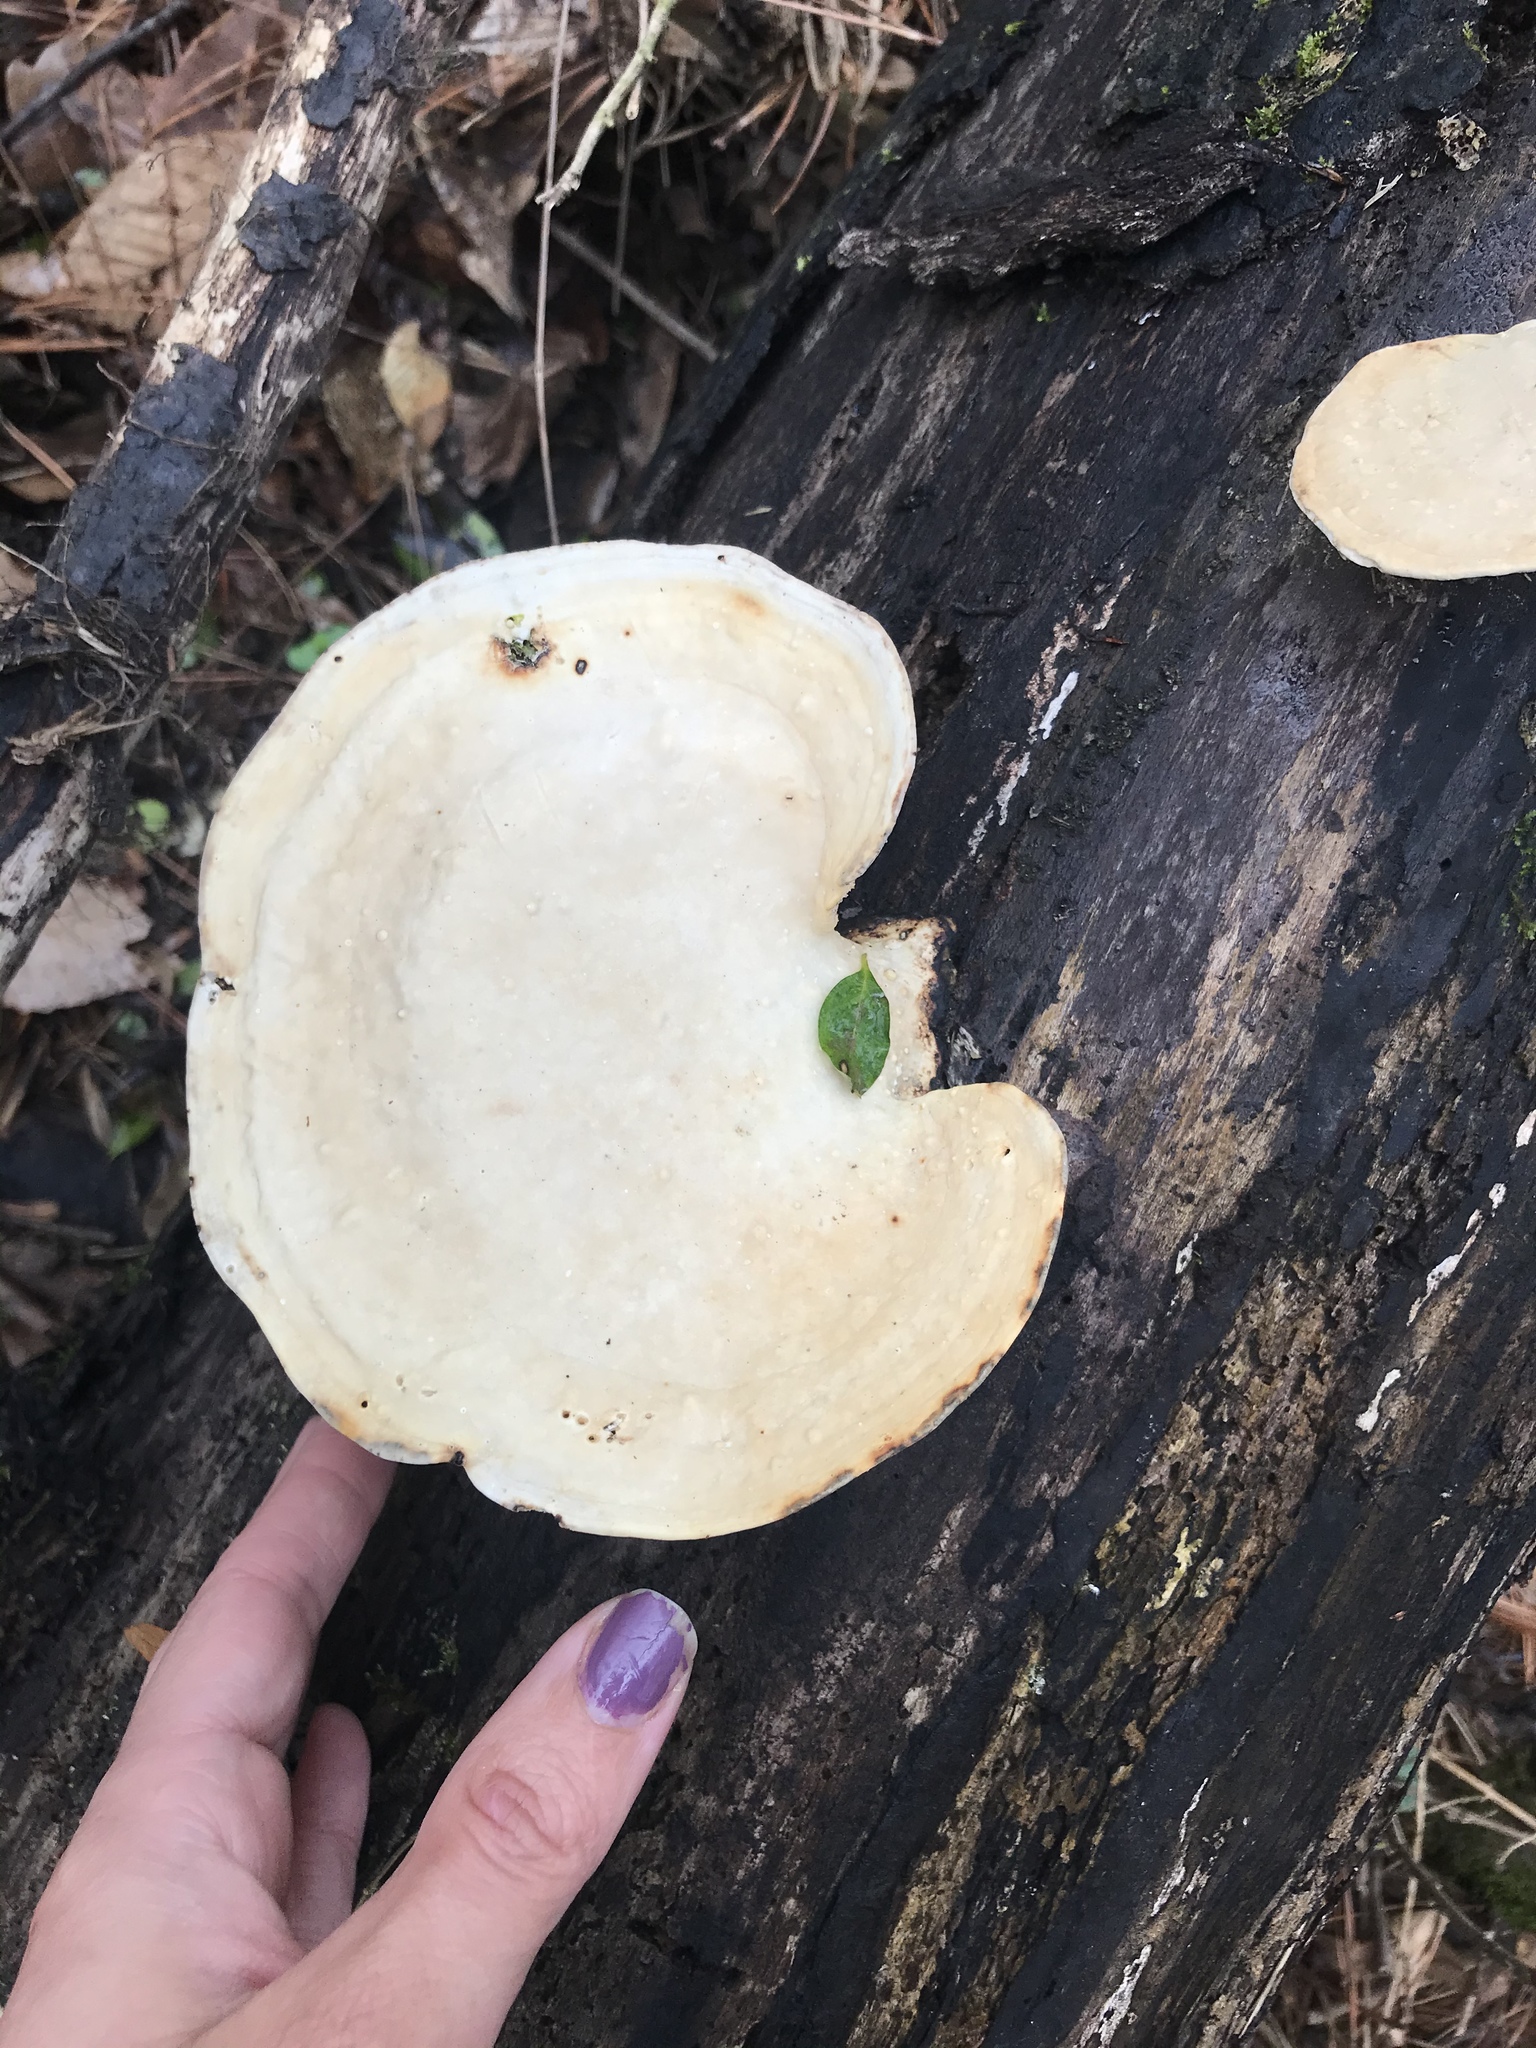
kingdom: Fungi
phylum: Basidiomycota
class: Agaricomycetes
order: Polyporales
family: Polyporaceae
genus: Trametes
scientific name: Trametes
